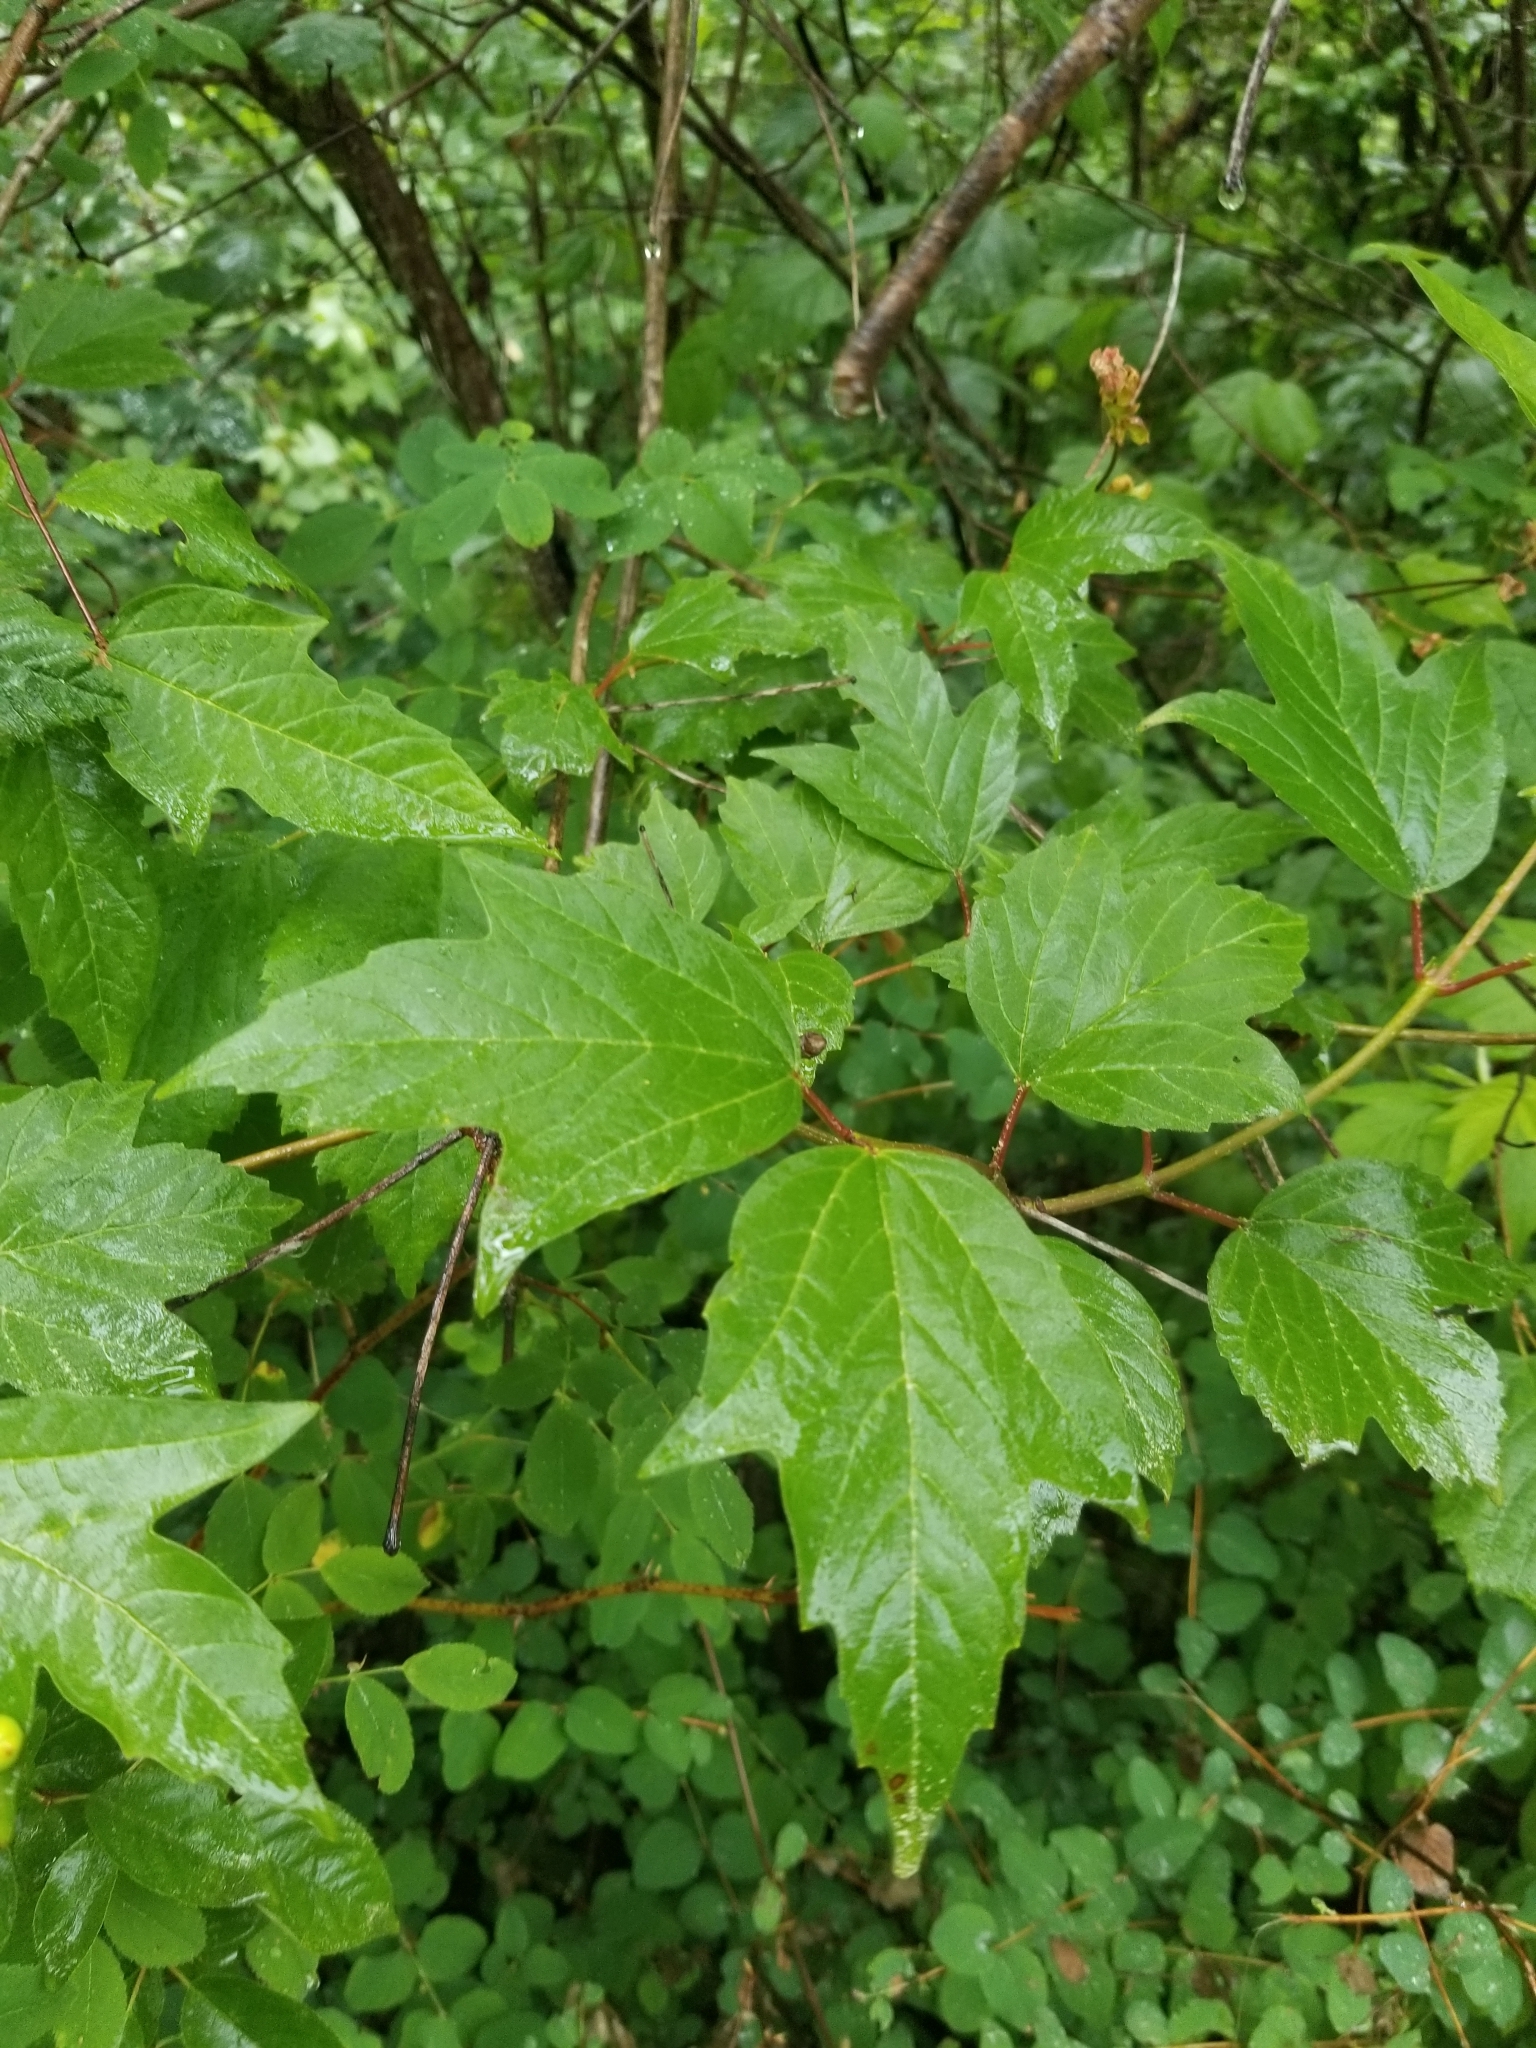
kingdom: Plantae
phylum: Tracheophyta
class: Magnoliopsida
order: Dipsacales
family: Viburnaceae
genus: Viburnum
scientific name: Viburnum trilobum
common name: American cranberrybush
